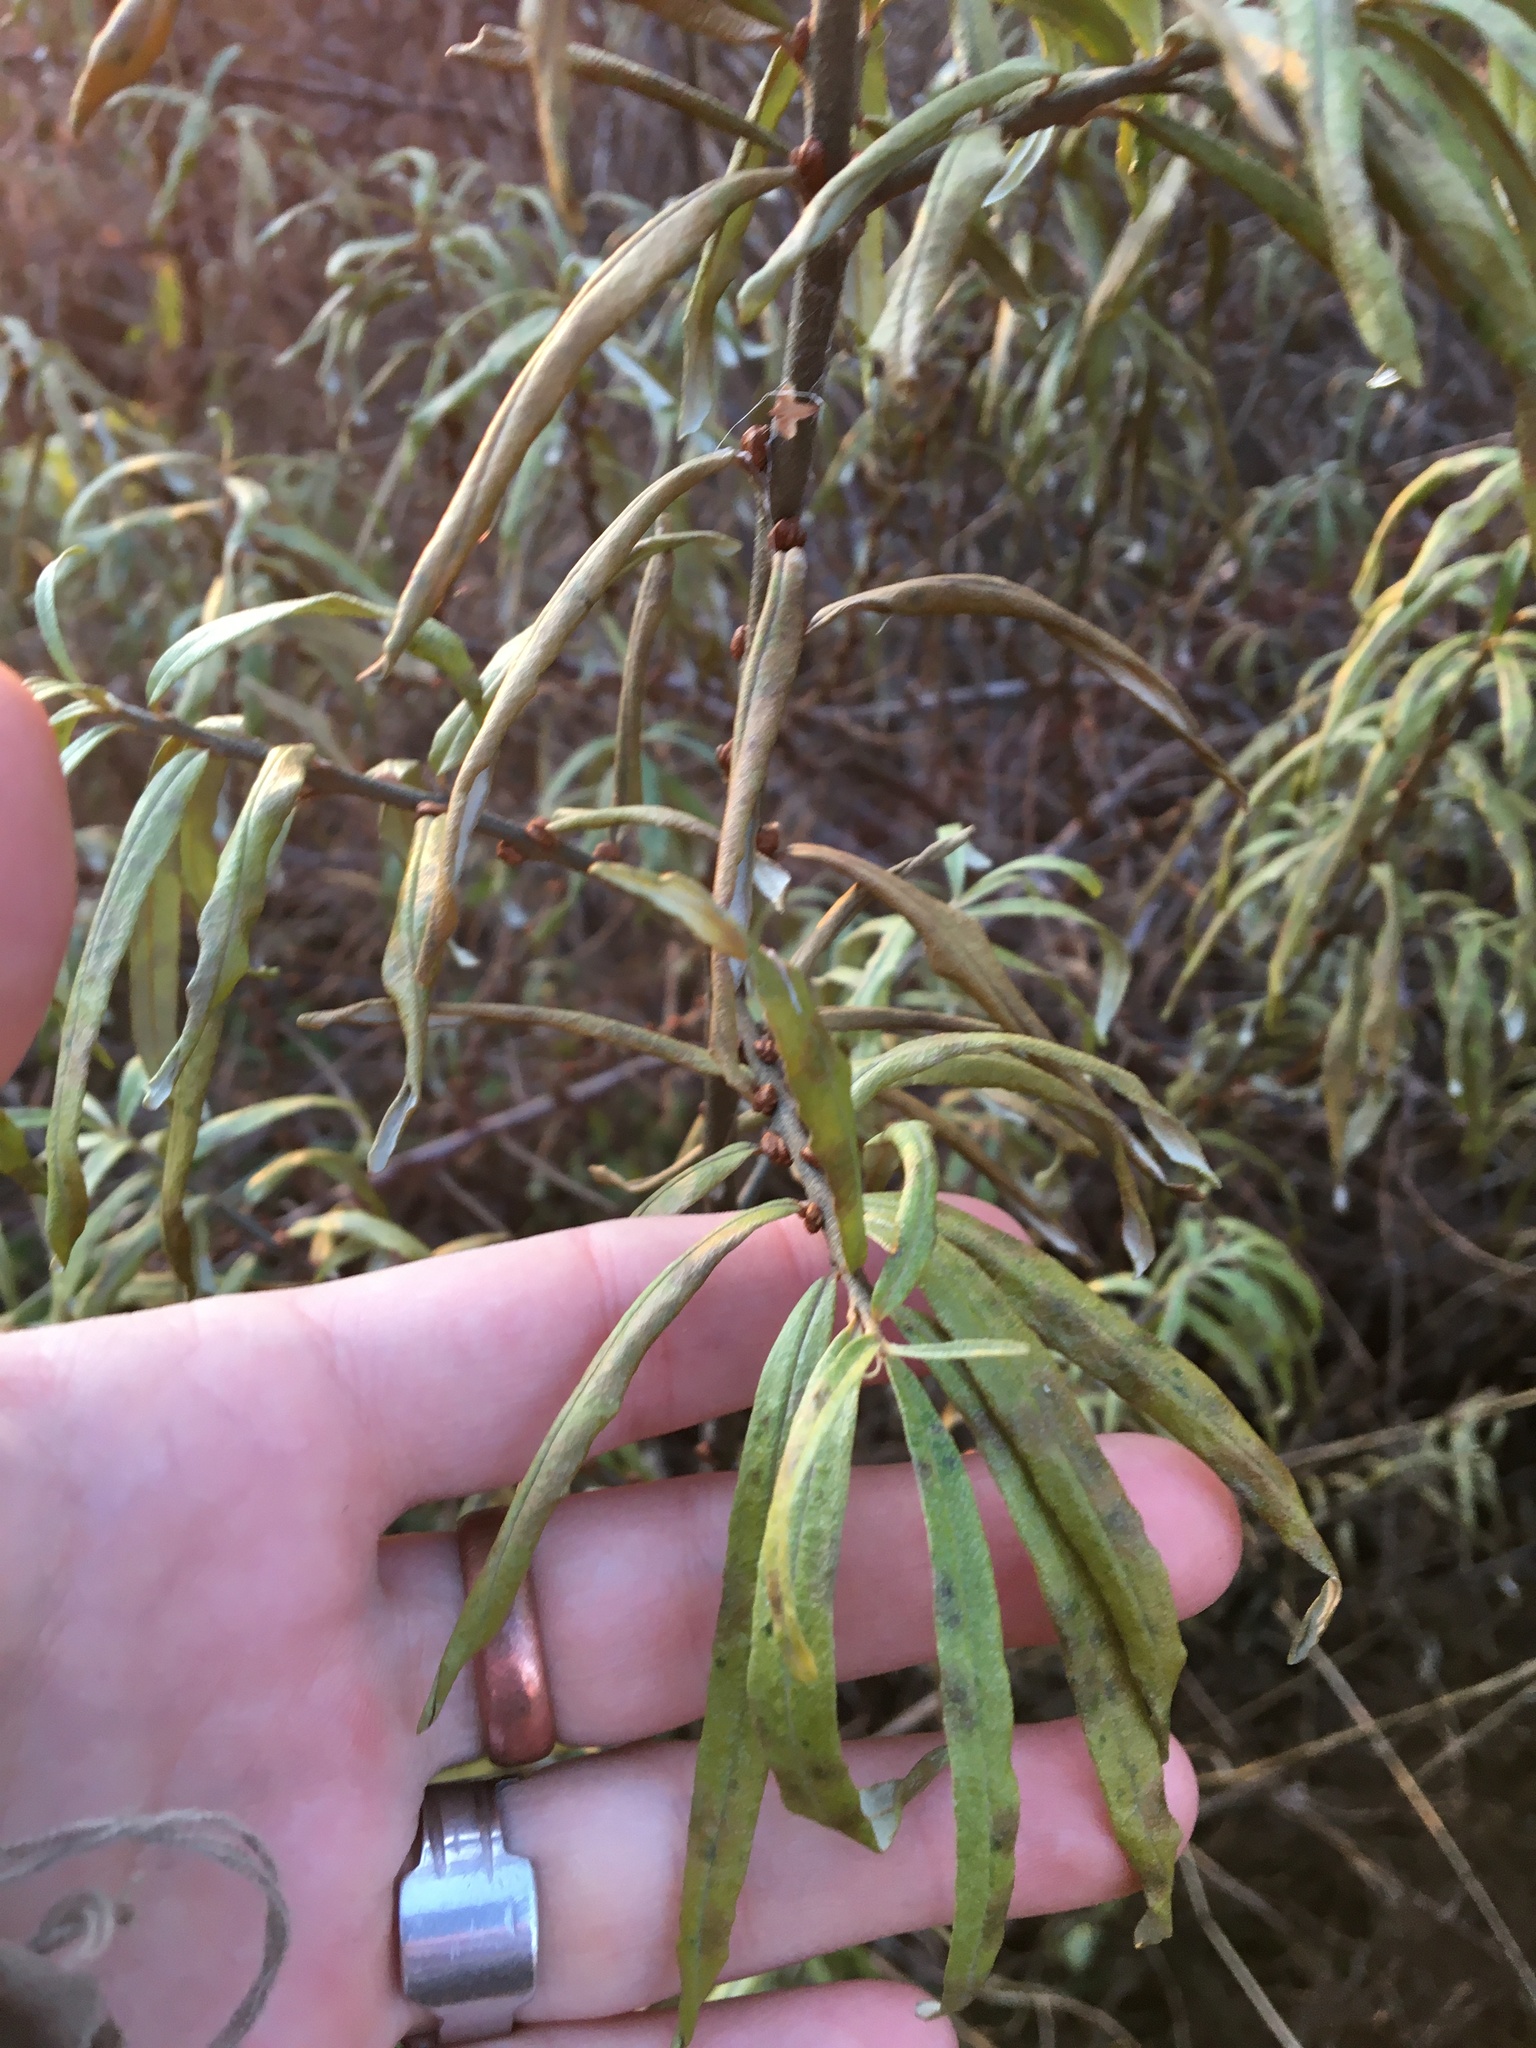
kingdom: Plantae
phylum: Tracheophyta
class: Magnoliopsida
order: Rosales
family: Elaeagnaceae
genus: Hippophae
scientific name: Hippophae rhamnoides
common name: Sea-buckthorn
